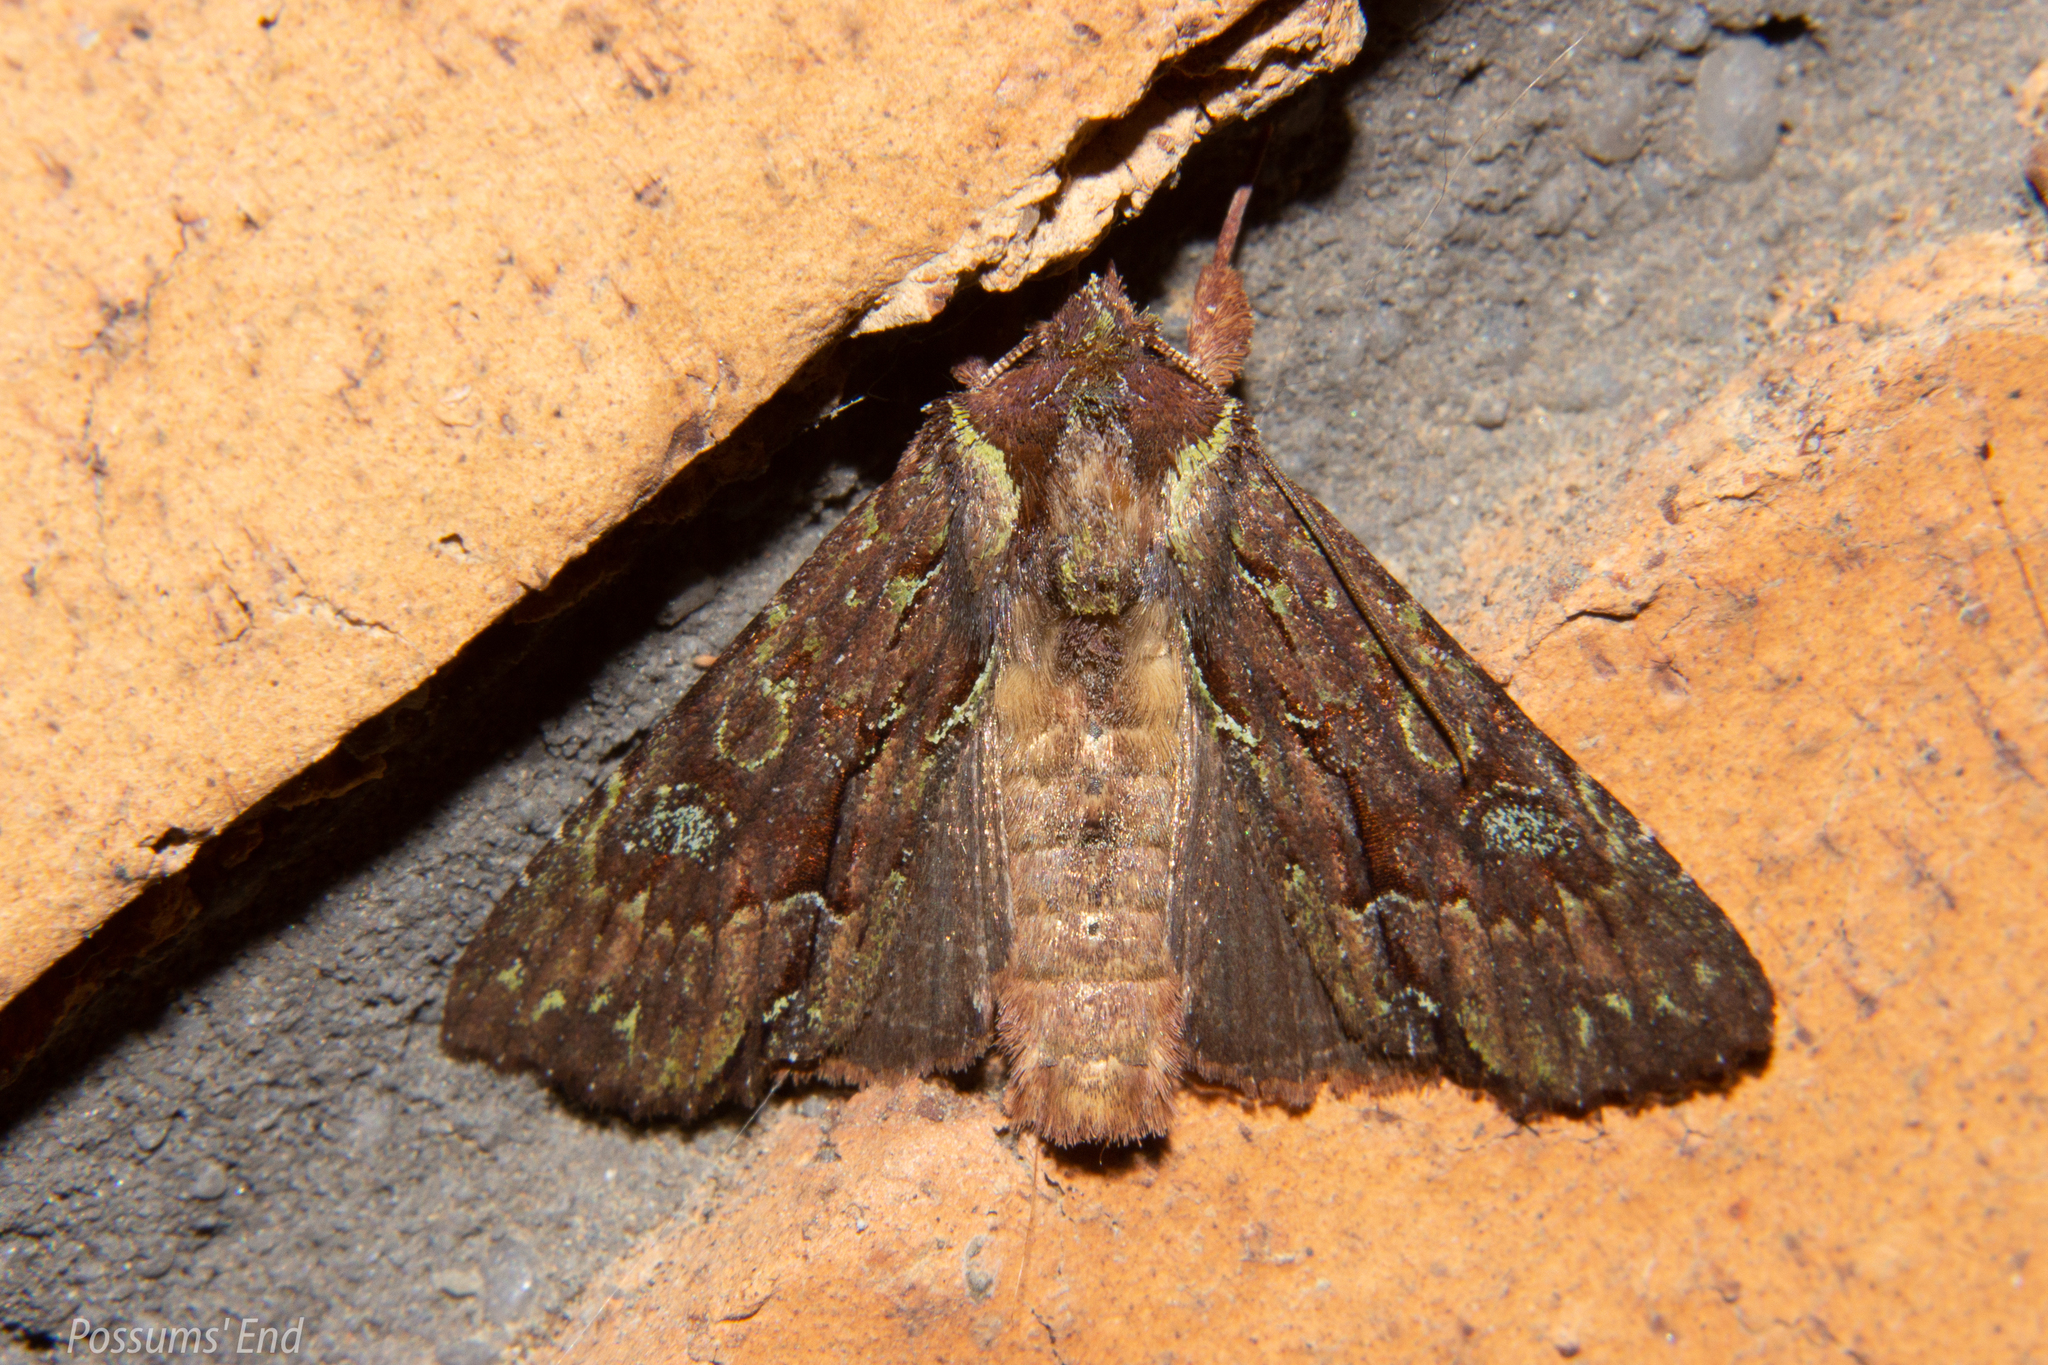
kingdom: Animalia
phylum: Arthropoda
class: Insecta
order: Lepidoptera
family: Noctuidae
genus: Meterana
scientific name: Meterana diatmeta
